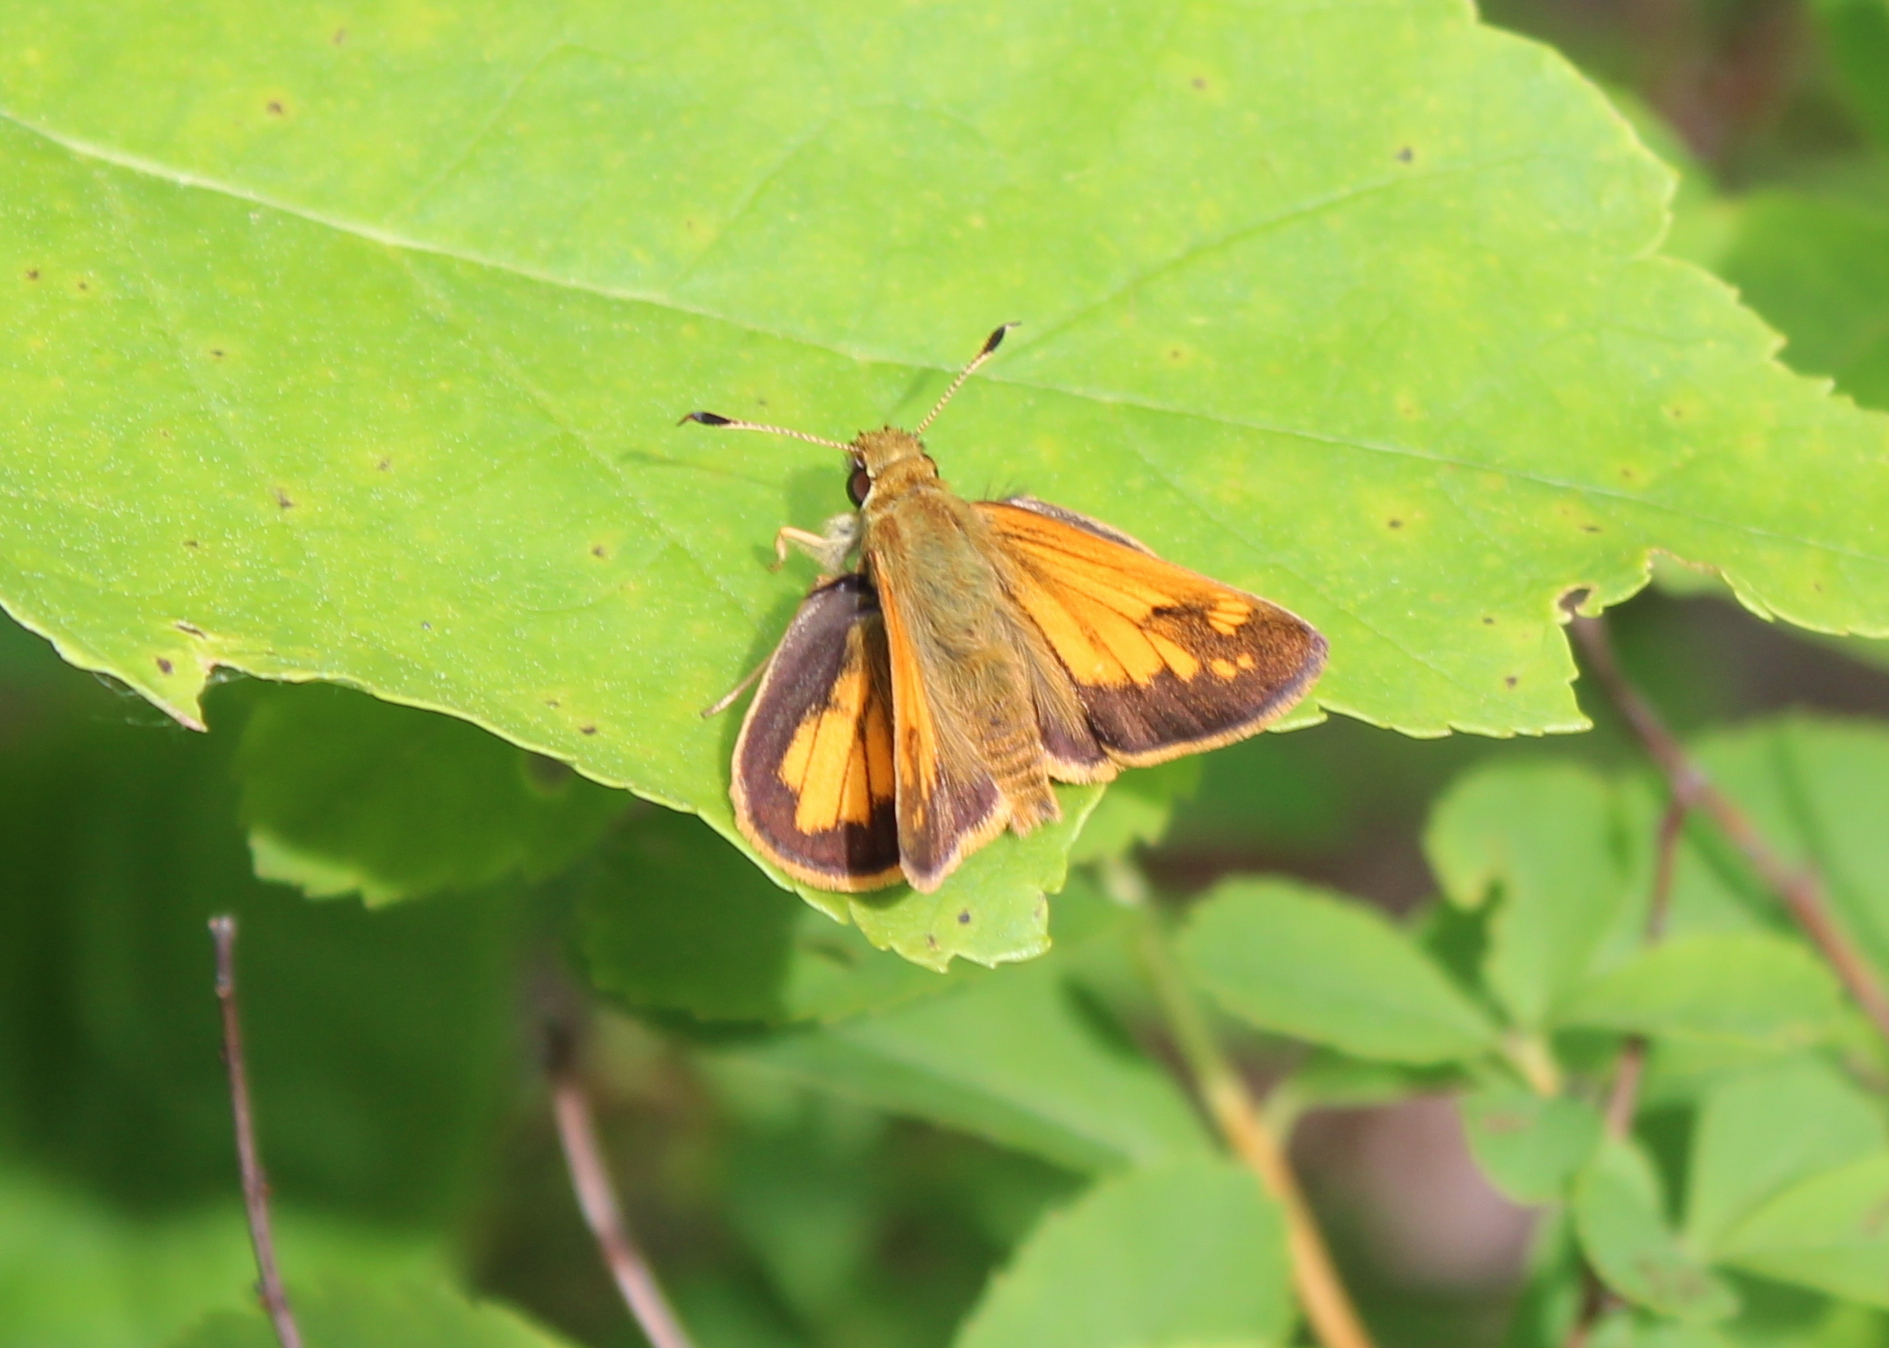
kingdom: Animalia
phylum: Arthropoda
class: Insecta
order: Lepidoptera
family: Hesperiidae
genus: Lon
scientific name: Lon hobomok
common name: Hobomok skipper
